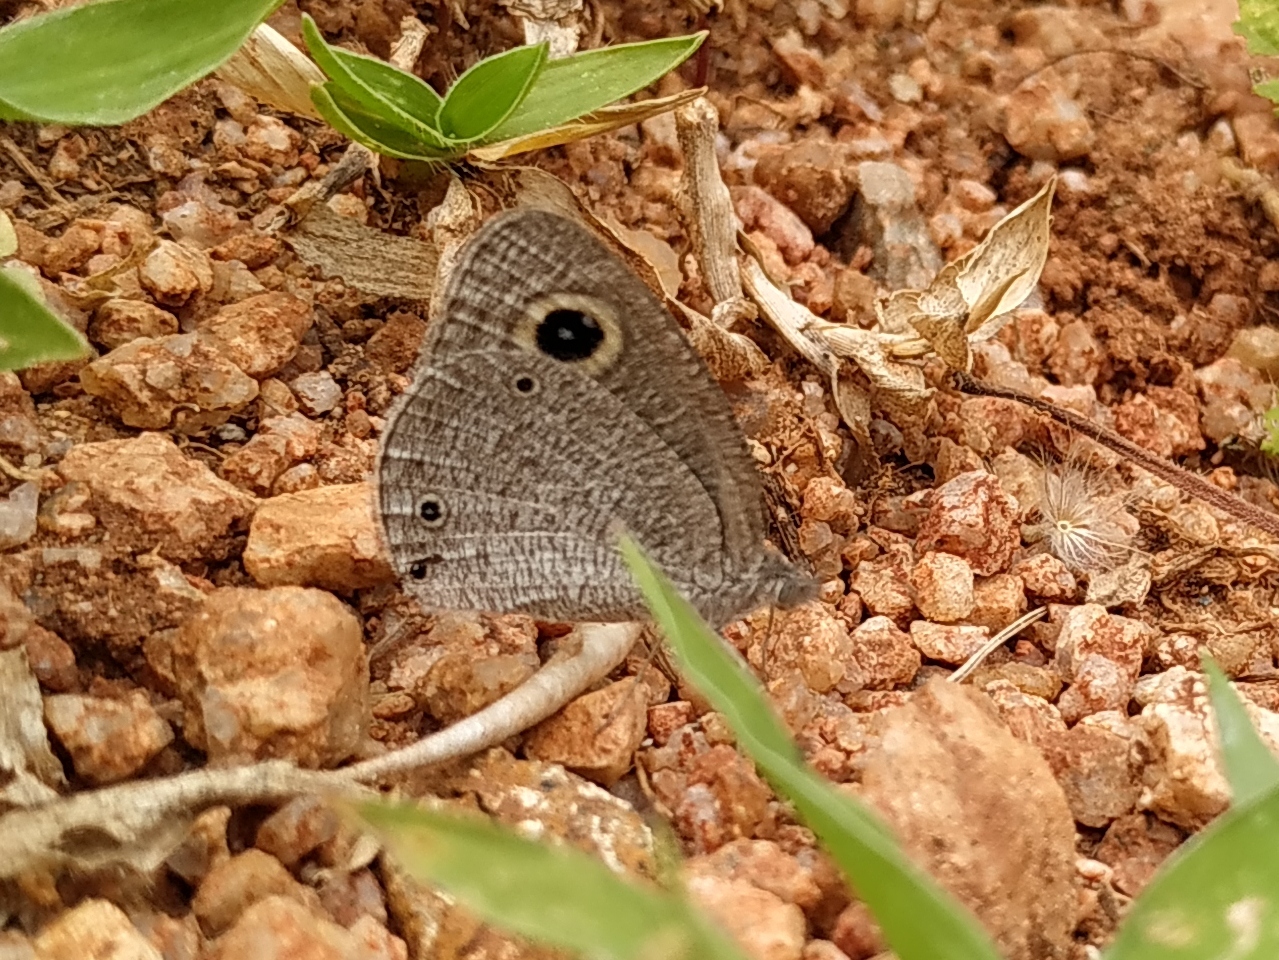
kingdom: Animalia
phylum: Arthropoda
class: Insecta
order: Lepidoptera
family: Nymphalidae
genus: Ypthima
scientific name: Ypthima asterope
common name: African ringlet
